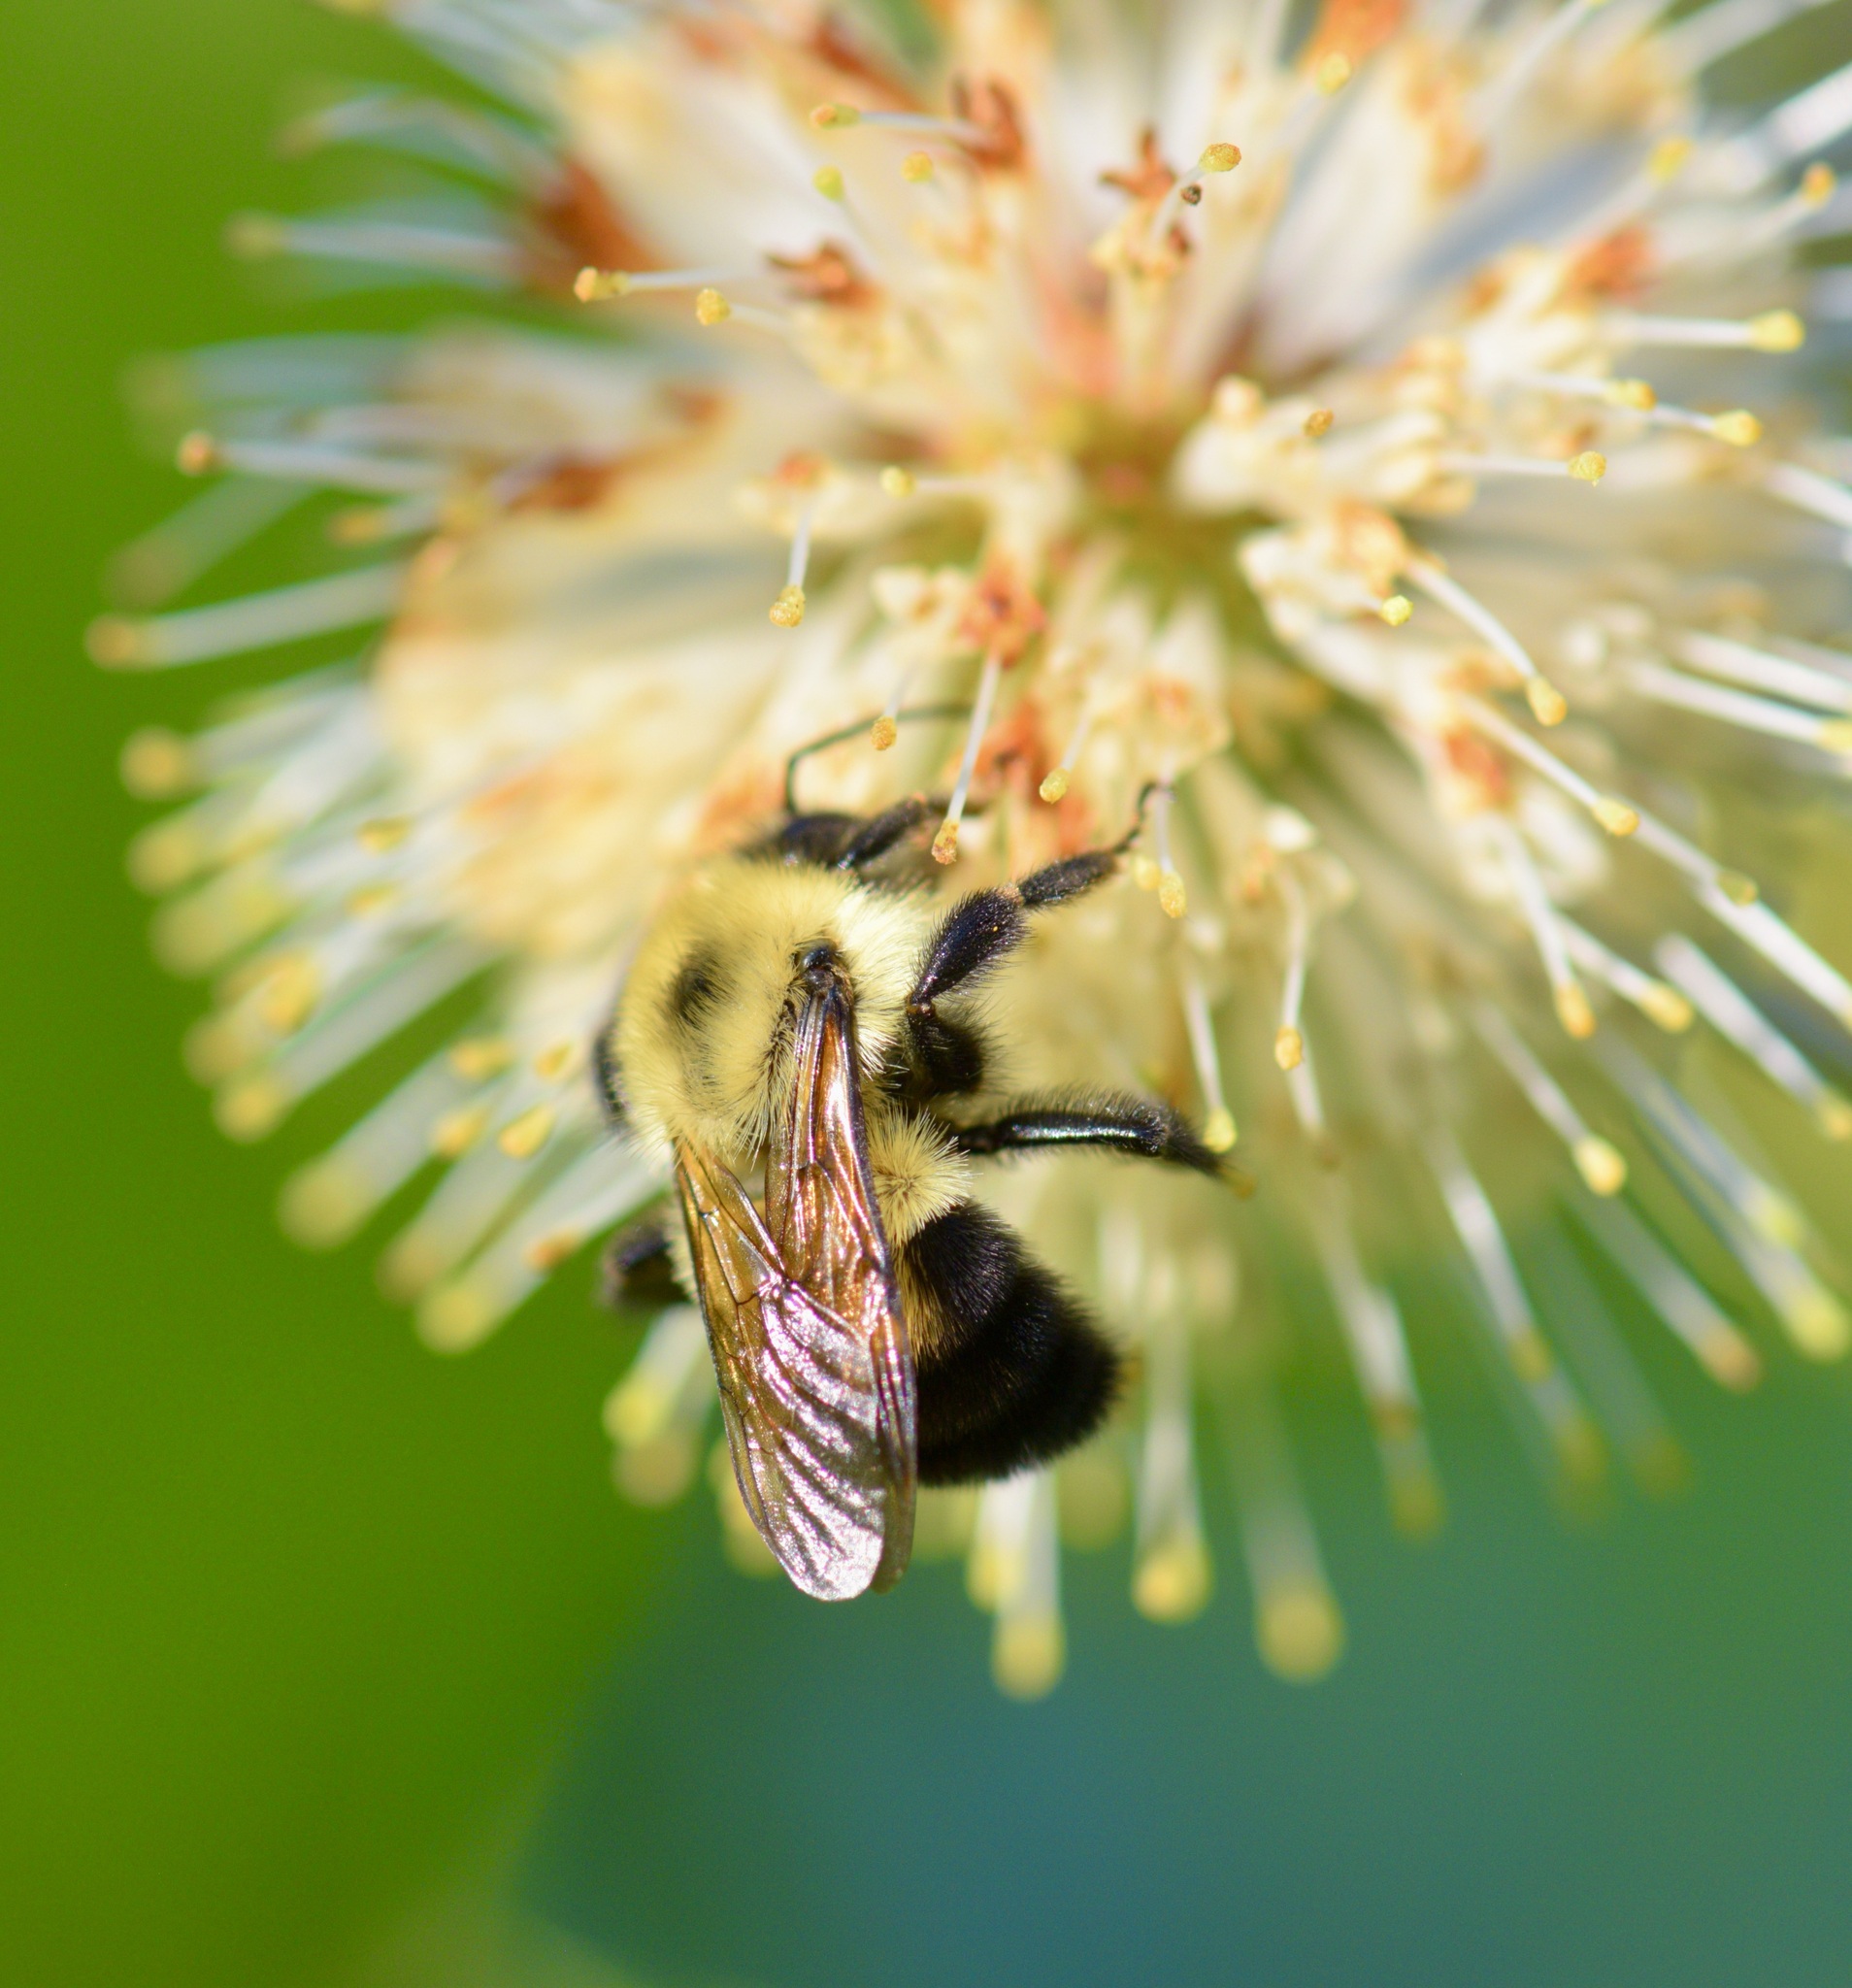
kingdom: Animalia
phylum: Arthropoda
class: Insecta
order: Hymenoptera
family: Apidae
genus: Bombus
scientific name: Bombus bimaculatus
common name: Two-spotted bumble bee
